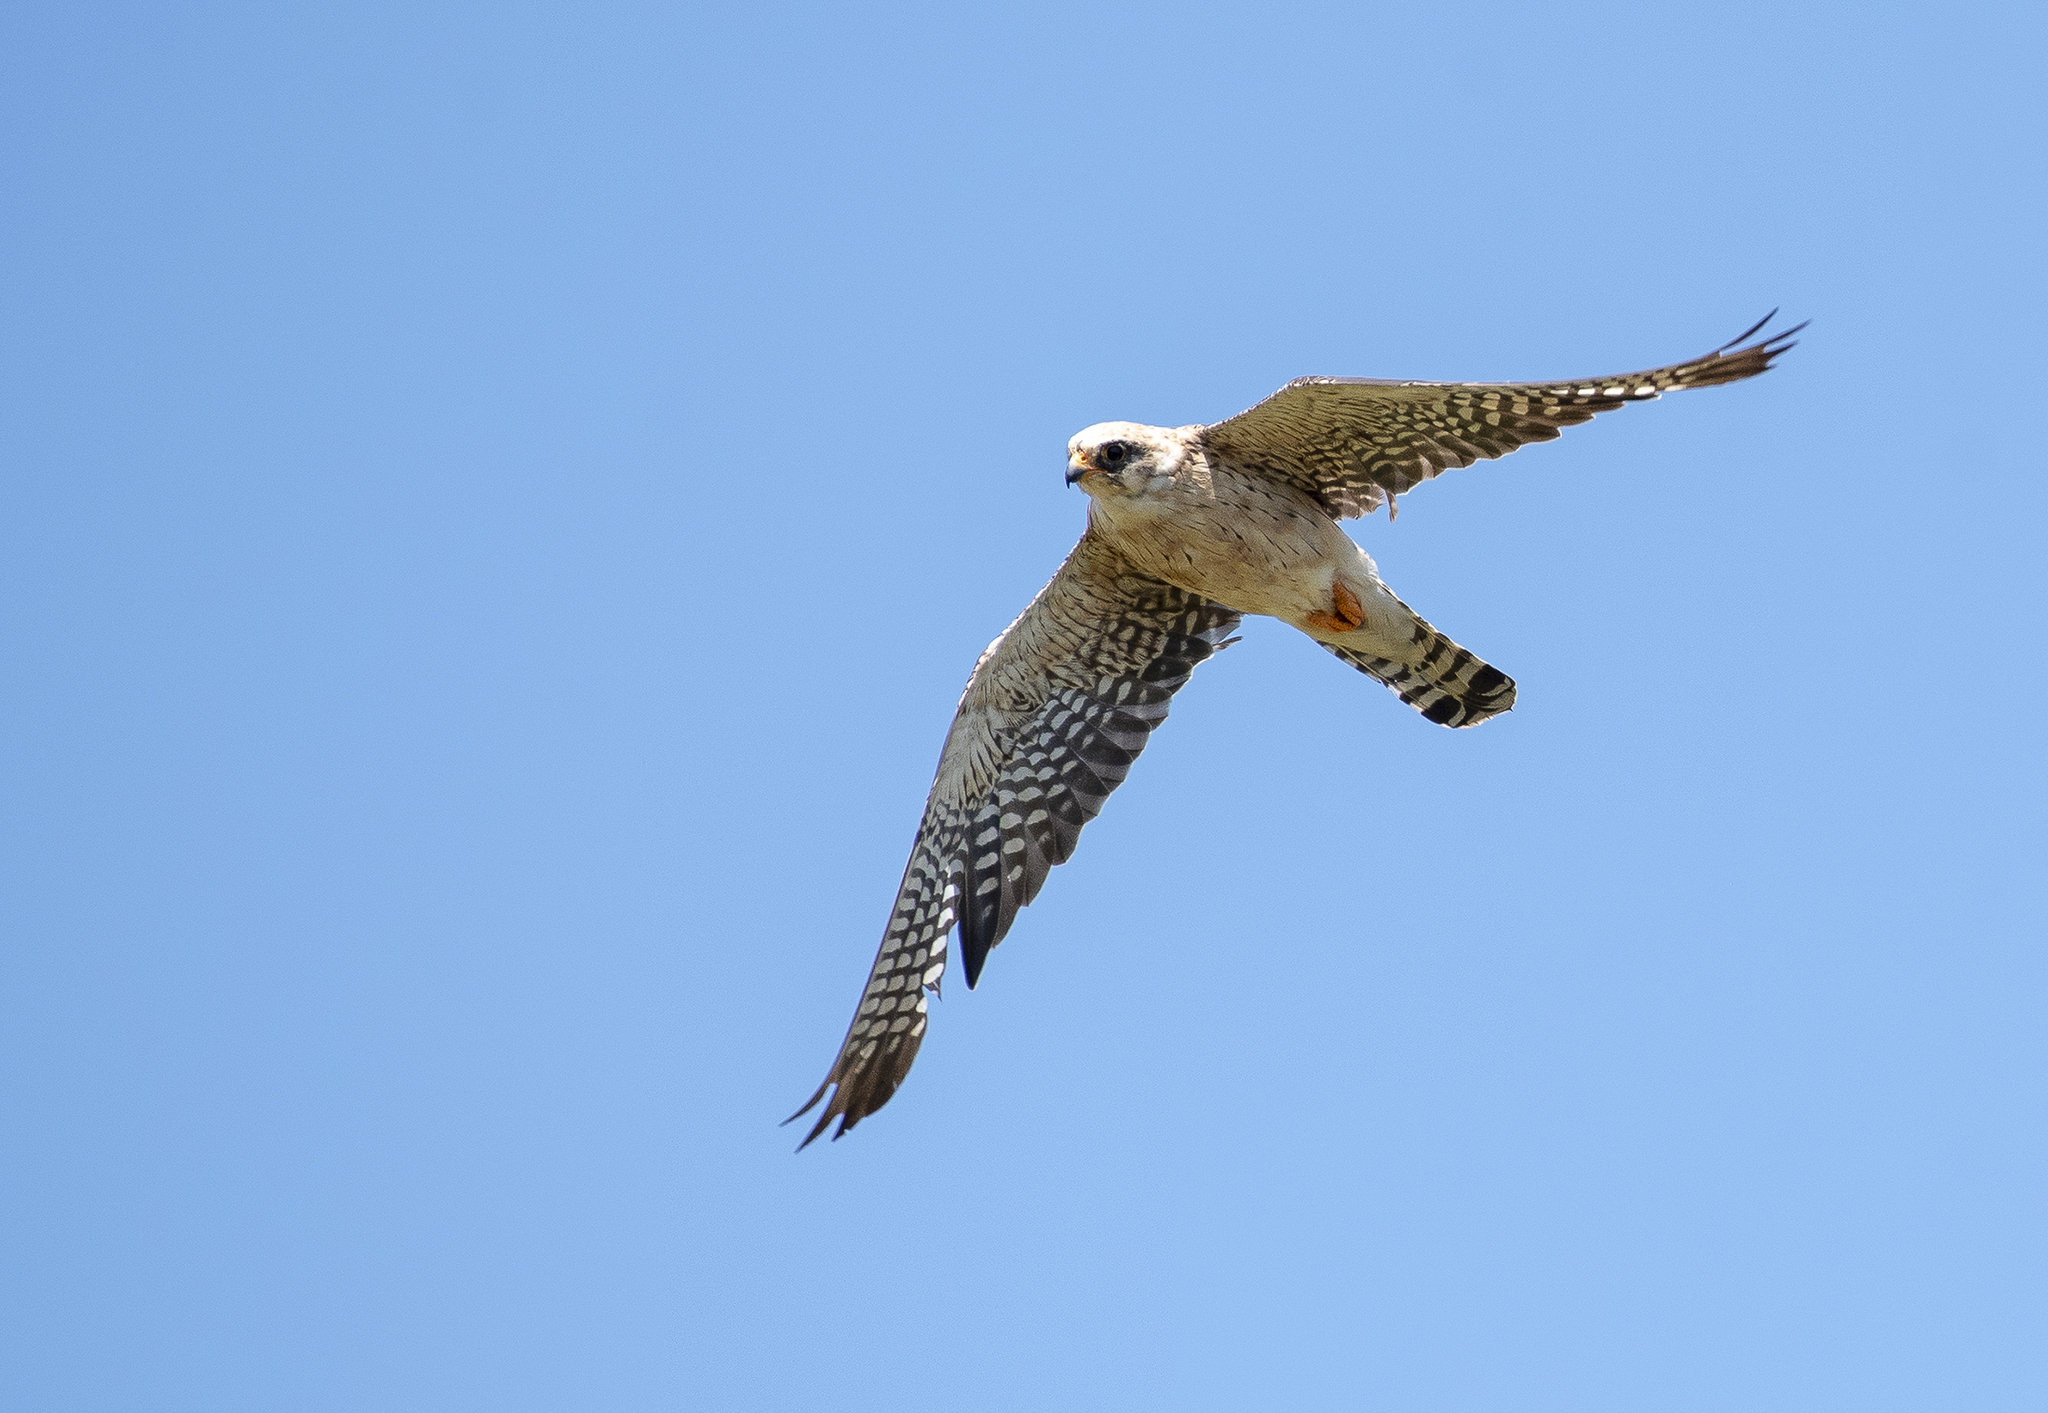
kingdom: Animalia
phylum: Chordata
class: Aves
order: Falconiformes
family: Falconidae
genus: Falco
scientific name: Falco vespertinus
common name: Red-footed falcon
